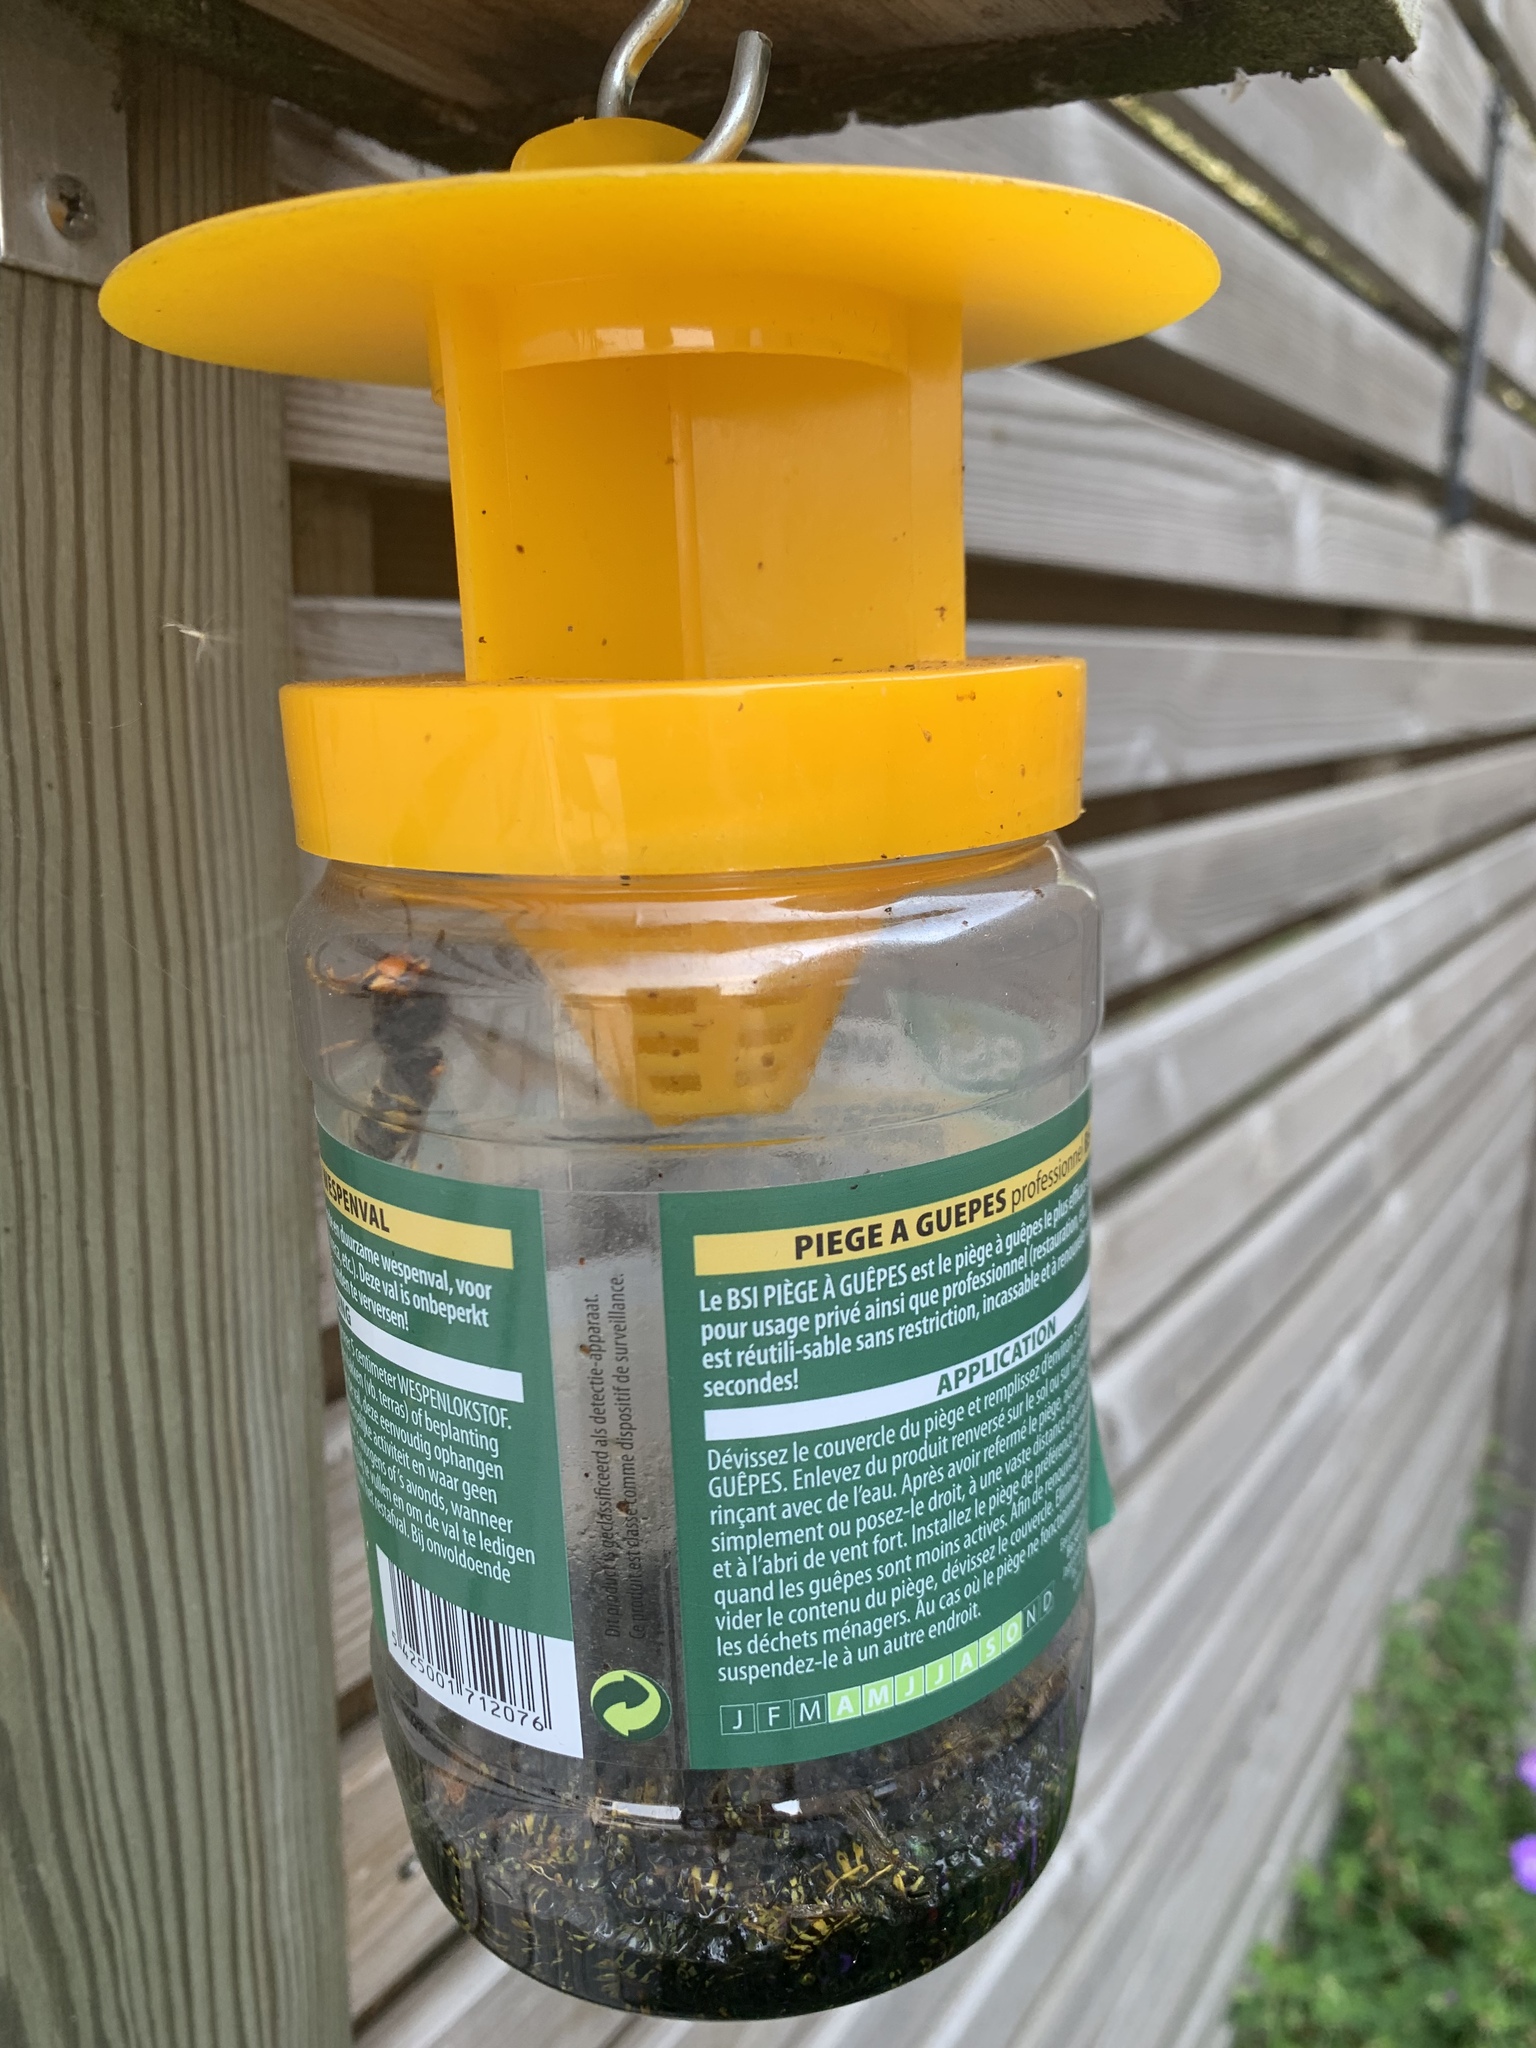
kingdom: Animalia
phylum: Arthropoda
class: Insecta
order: Hymenoptera
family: Vespidae
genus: Vespa
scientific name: Vespa velutina
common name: Asian hornet
